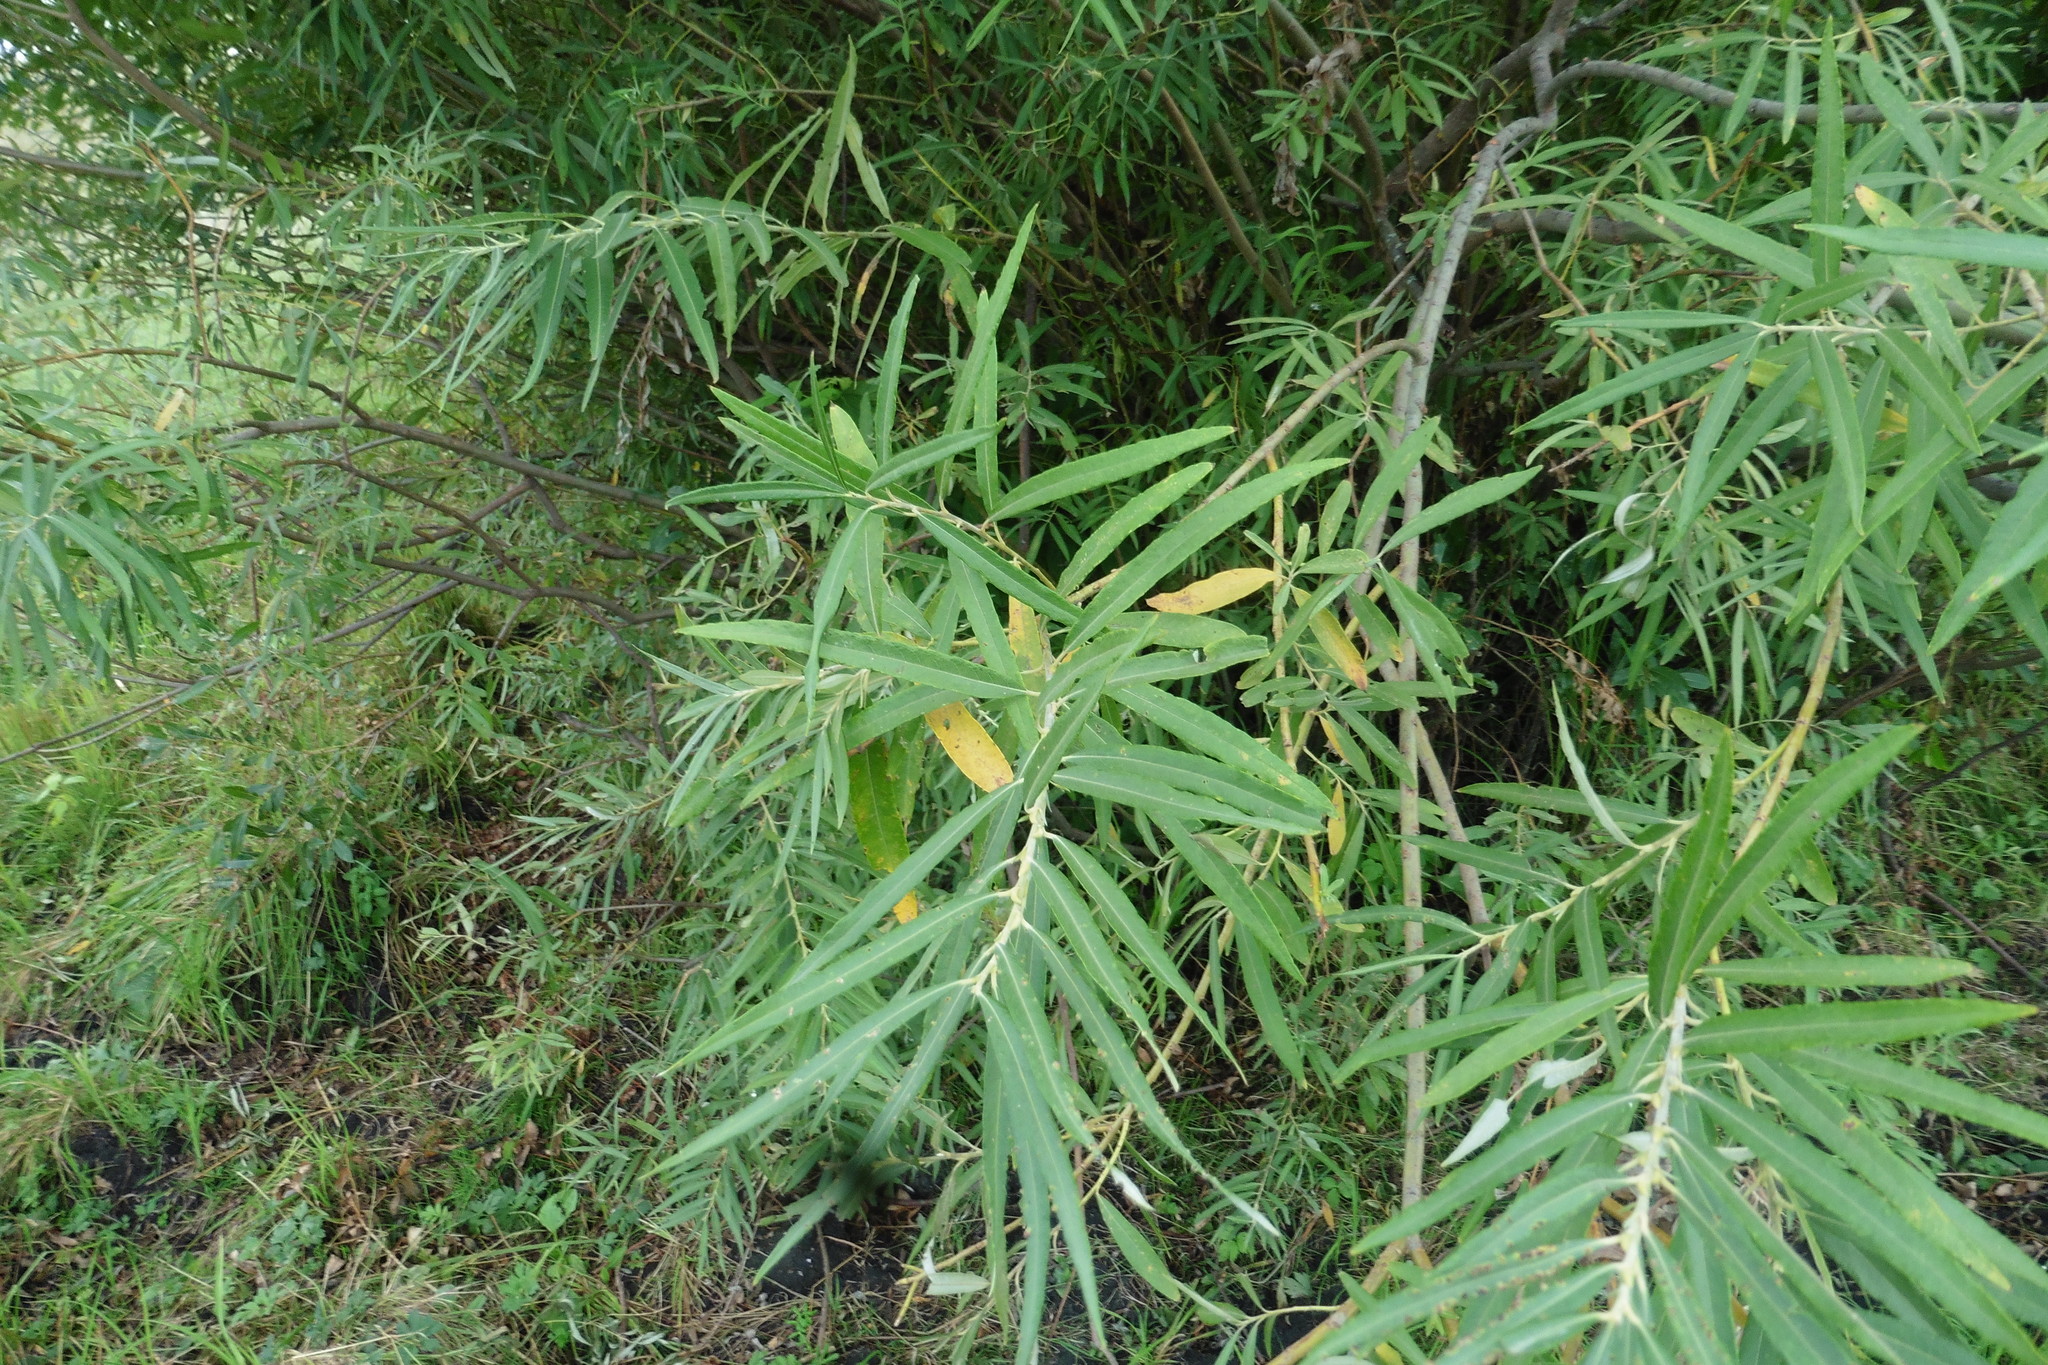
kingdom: Plantae
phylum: Tracheophyta
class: Magnoliopsida
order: Malpighiales
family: Salicaceae
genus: Salix
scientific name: Salix viminalis
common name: Osier
